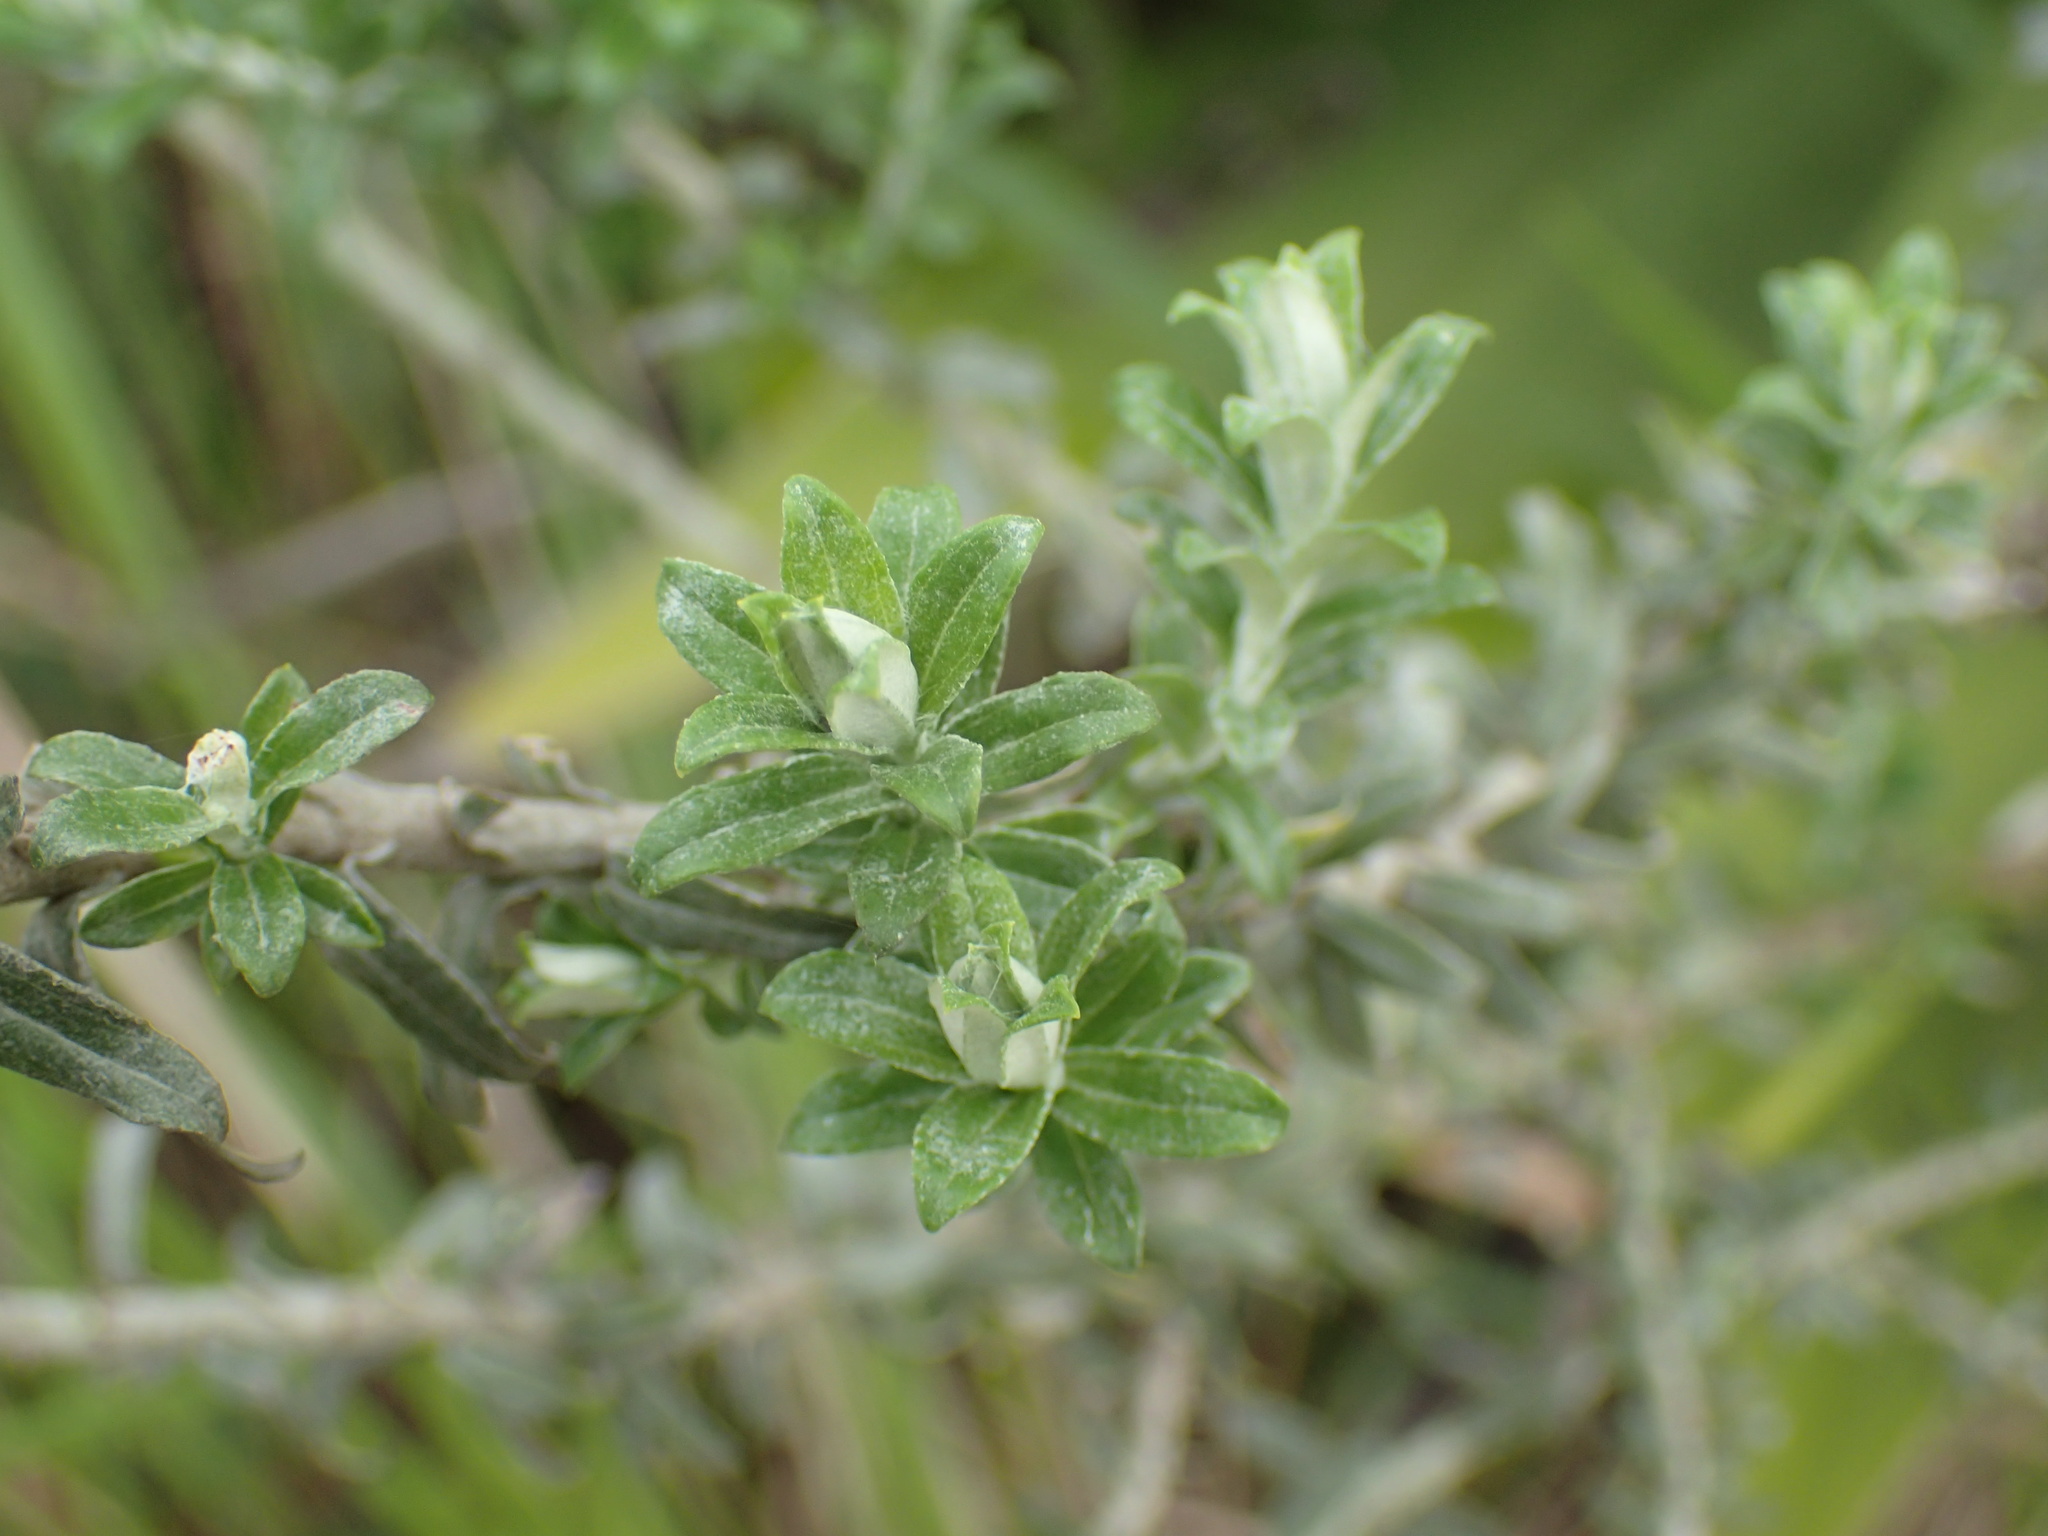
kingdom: Plantae
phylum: Tracheophyta
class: Magnoliopsida
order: Asterales
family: Asteraceae
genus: Helichrysum
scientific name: Helichrysum cymosum
